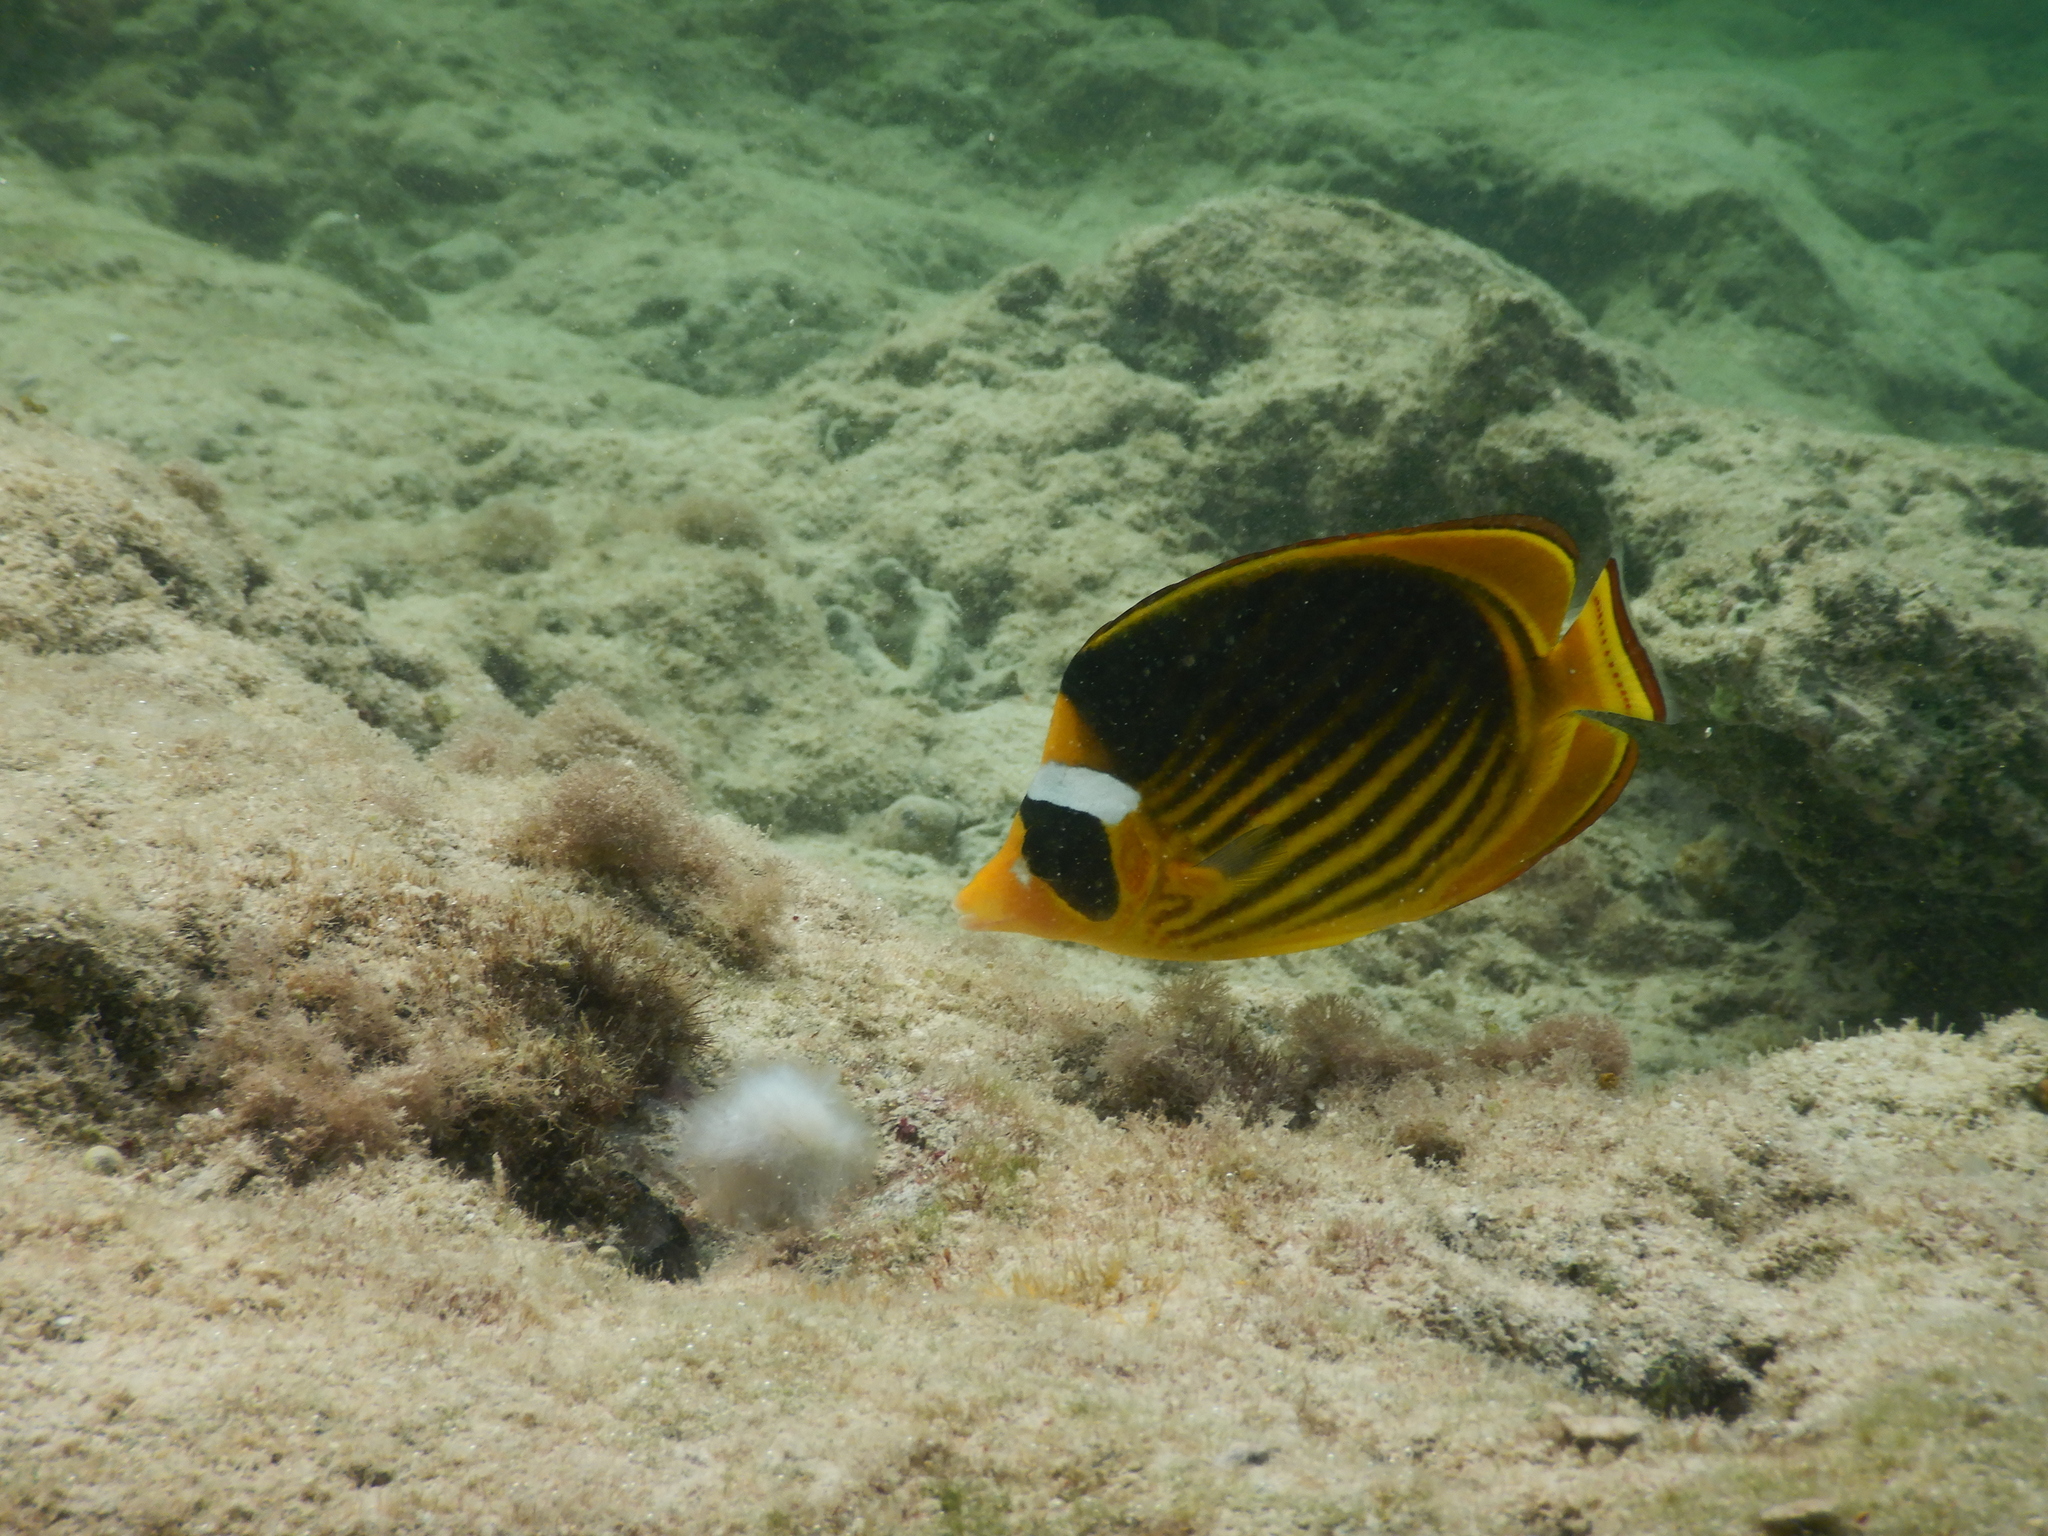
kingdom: Animalia
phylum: Chordata
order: Perciformes
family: Chaetodontidae
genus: Chaetodon
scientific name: Chaetodon fasciatus
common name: Diagonal butterflyfish
